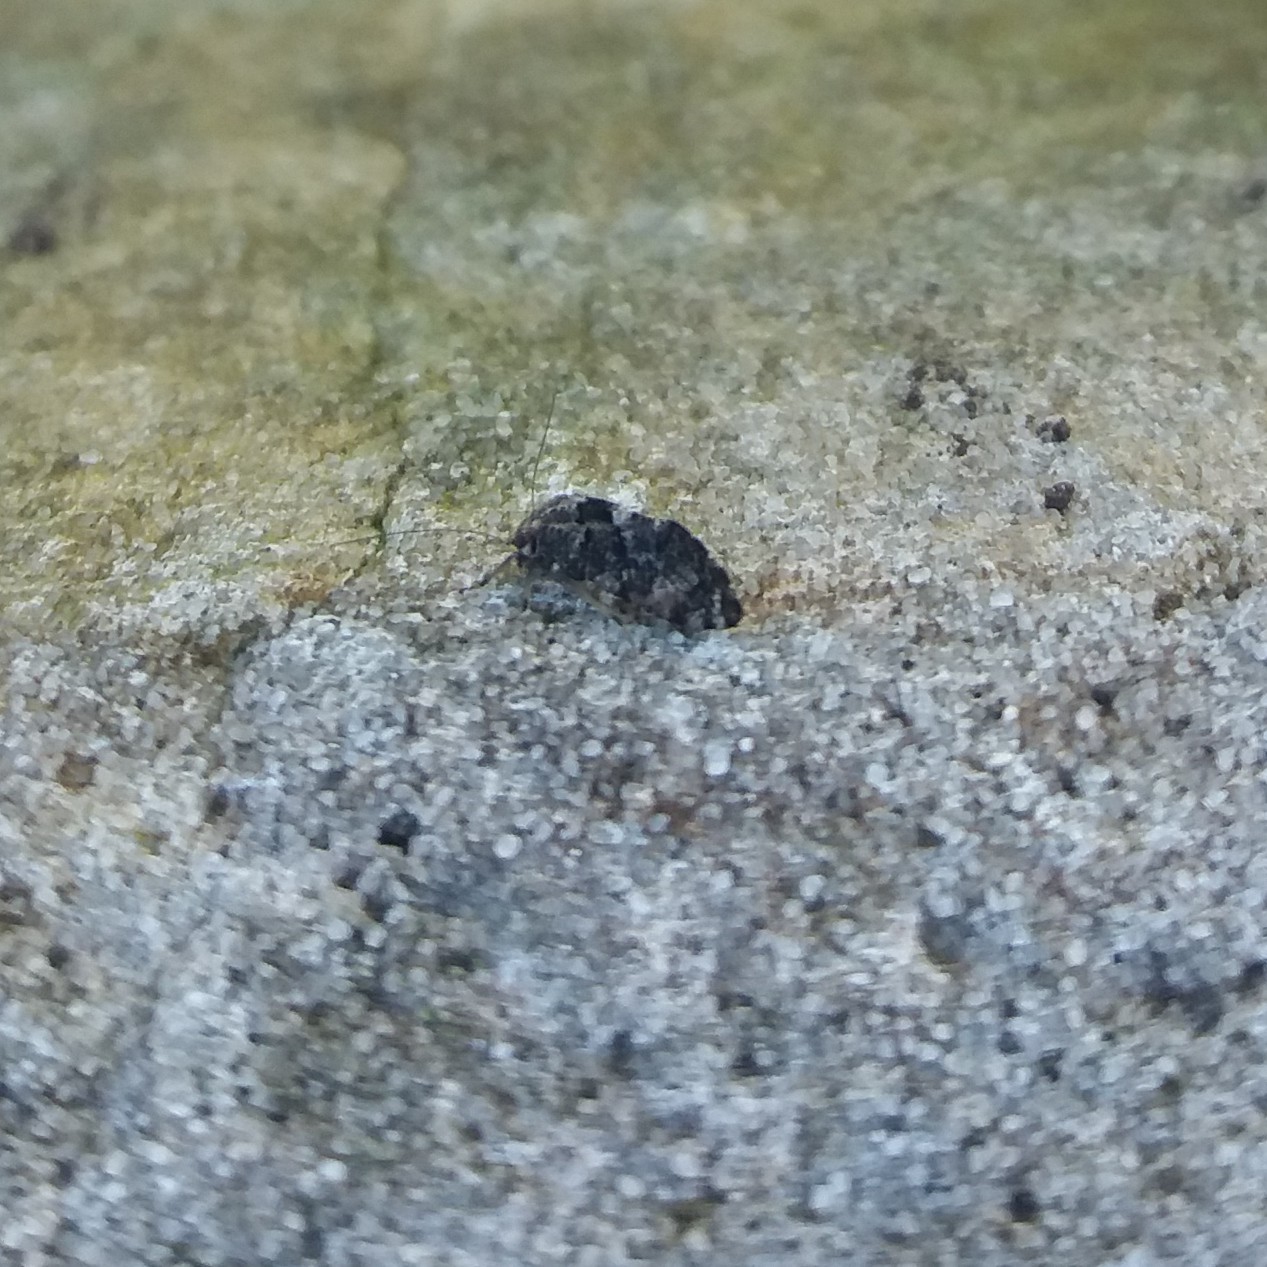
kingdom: Animalia
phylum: Arthropoda
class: Insecta
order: Psocodea
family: Myopsocidae
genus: Nimbopsocus
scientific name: Nimbopsocus australis
